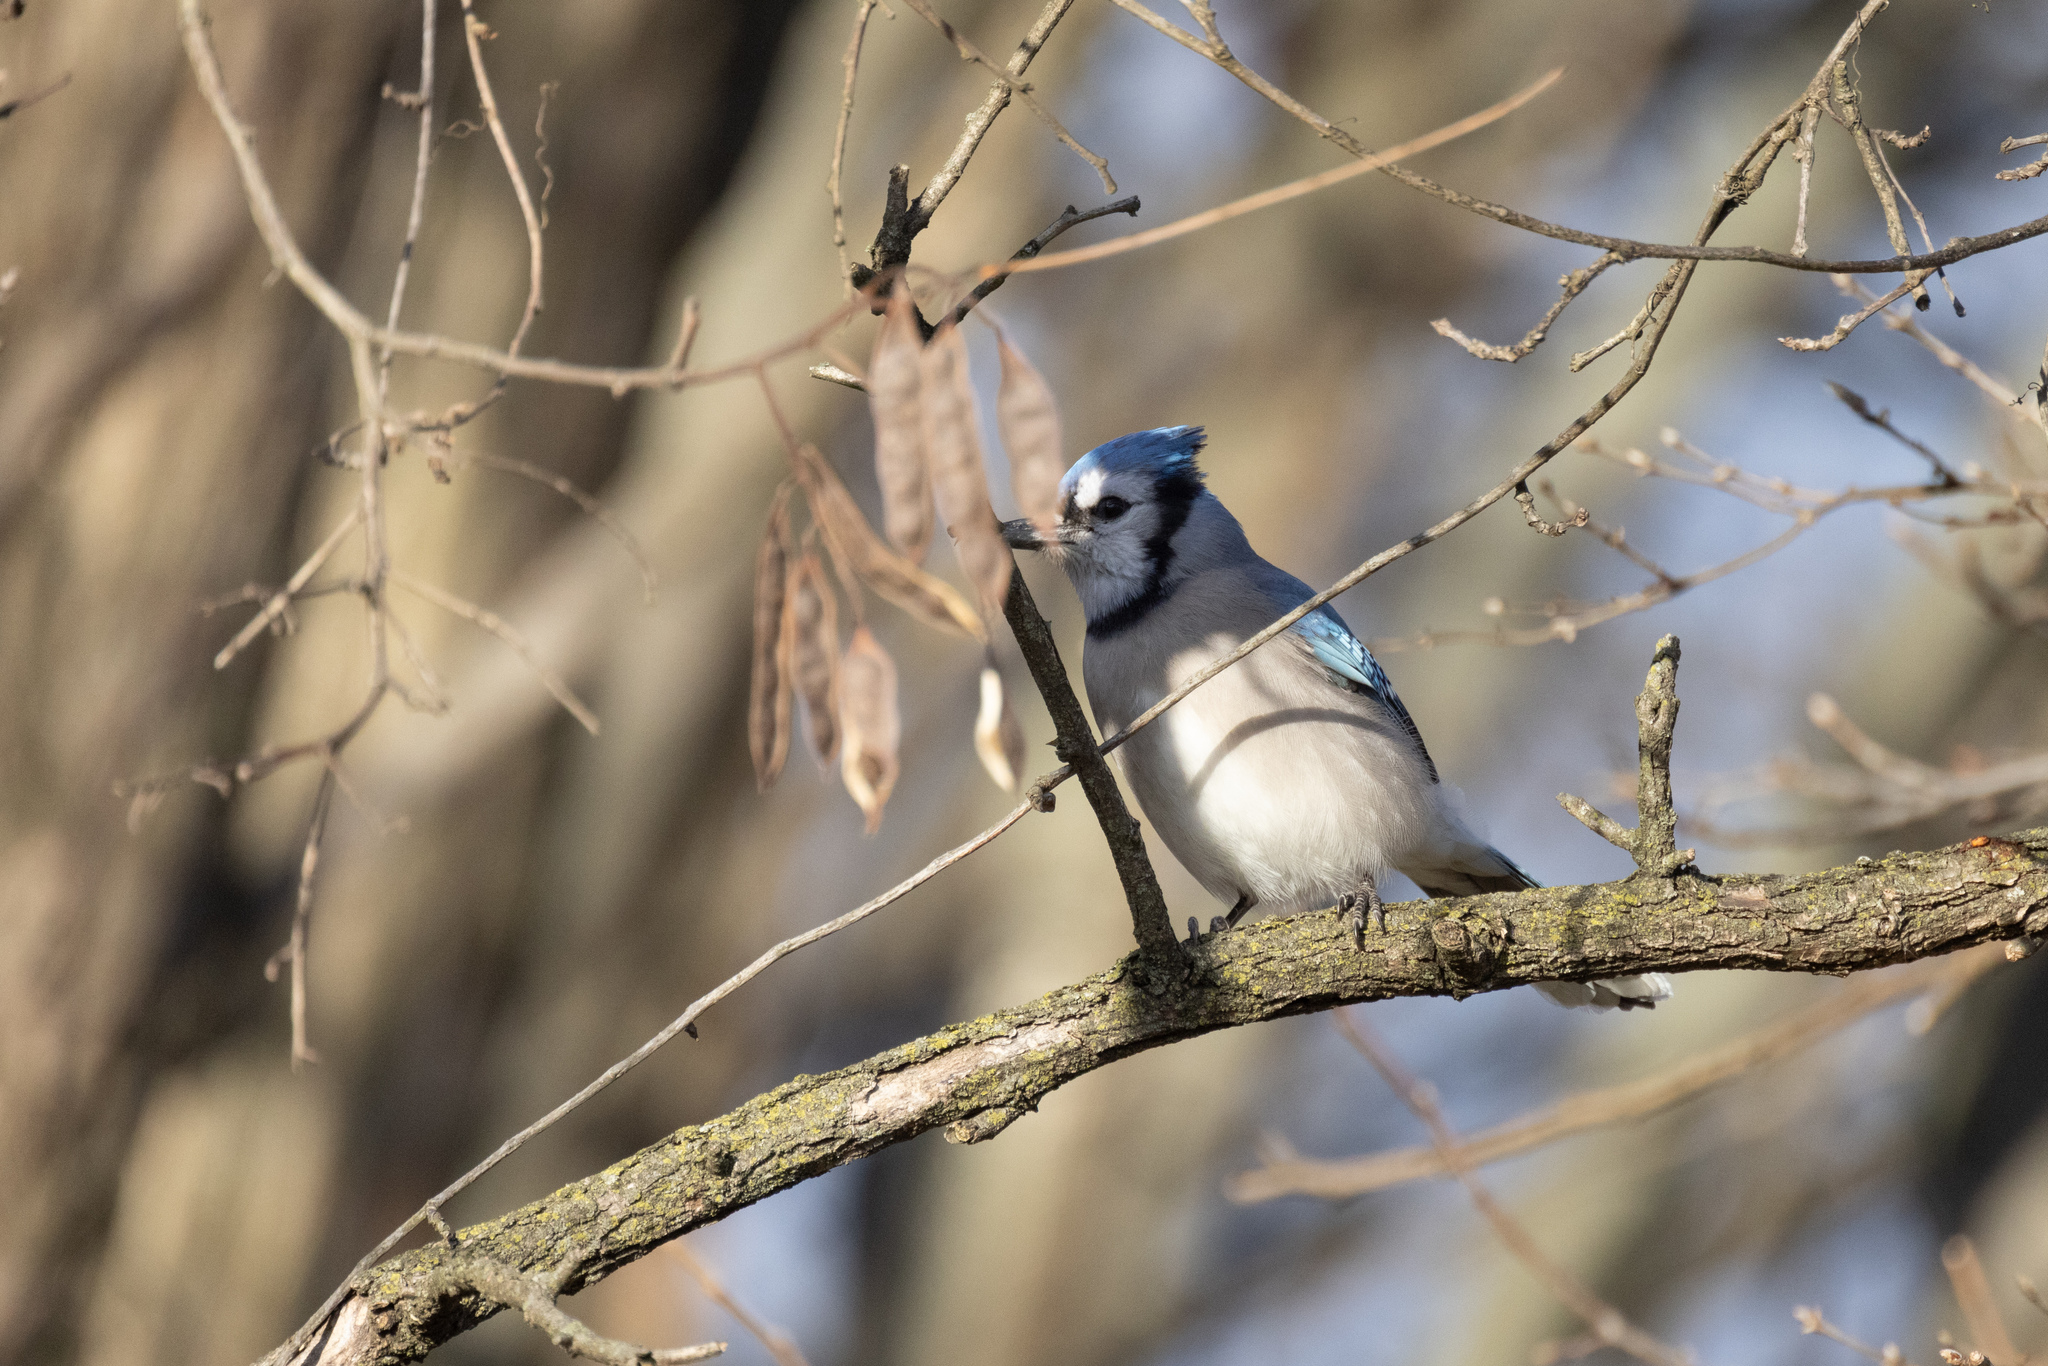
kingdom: Animalia
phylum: Chordata
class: Aves
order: Passeriformes
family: Corvidae
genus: Cyanocitta
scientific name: Cyanocitta cristata
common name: Blue jay
